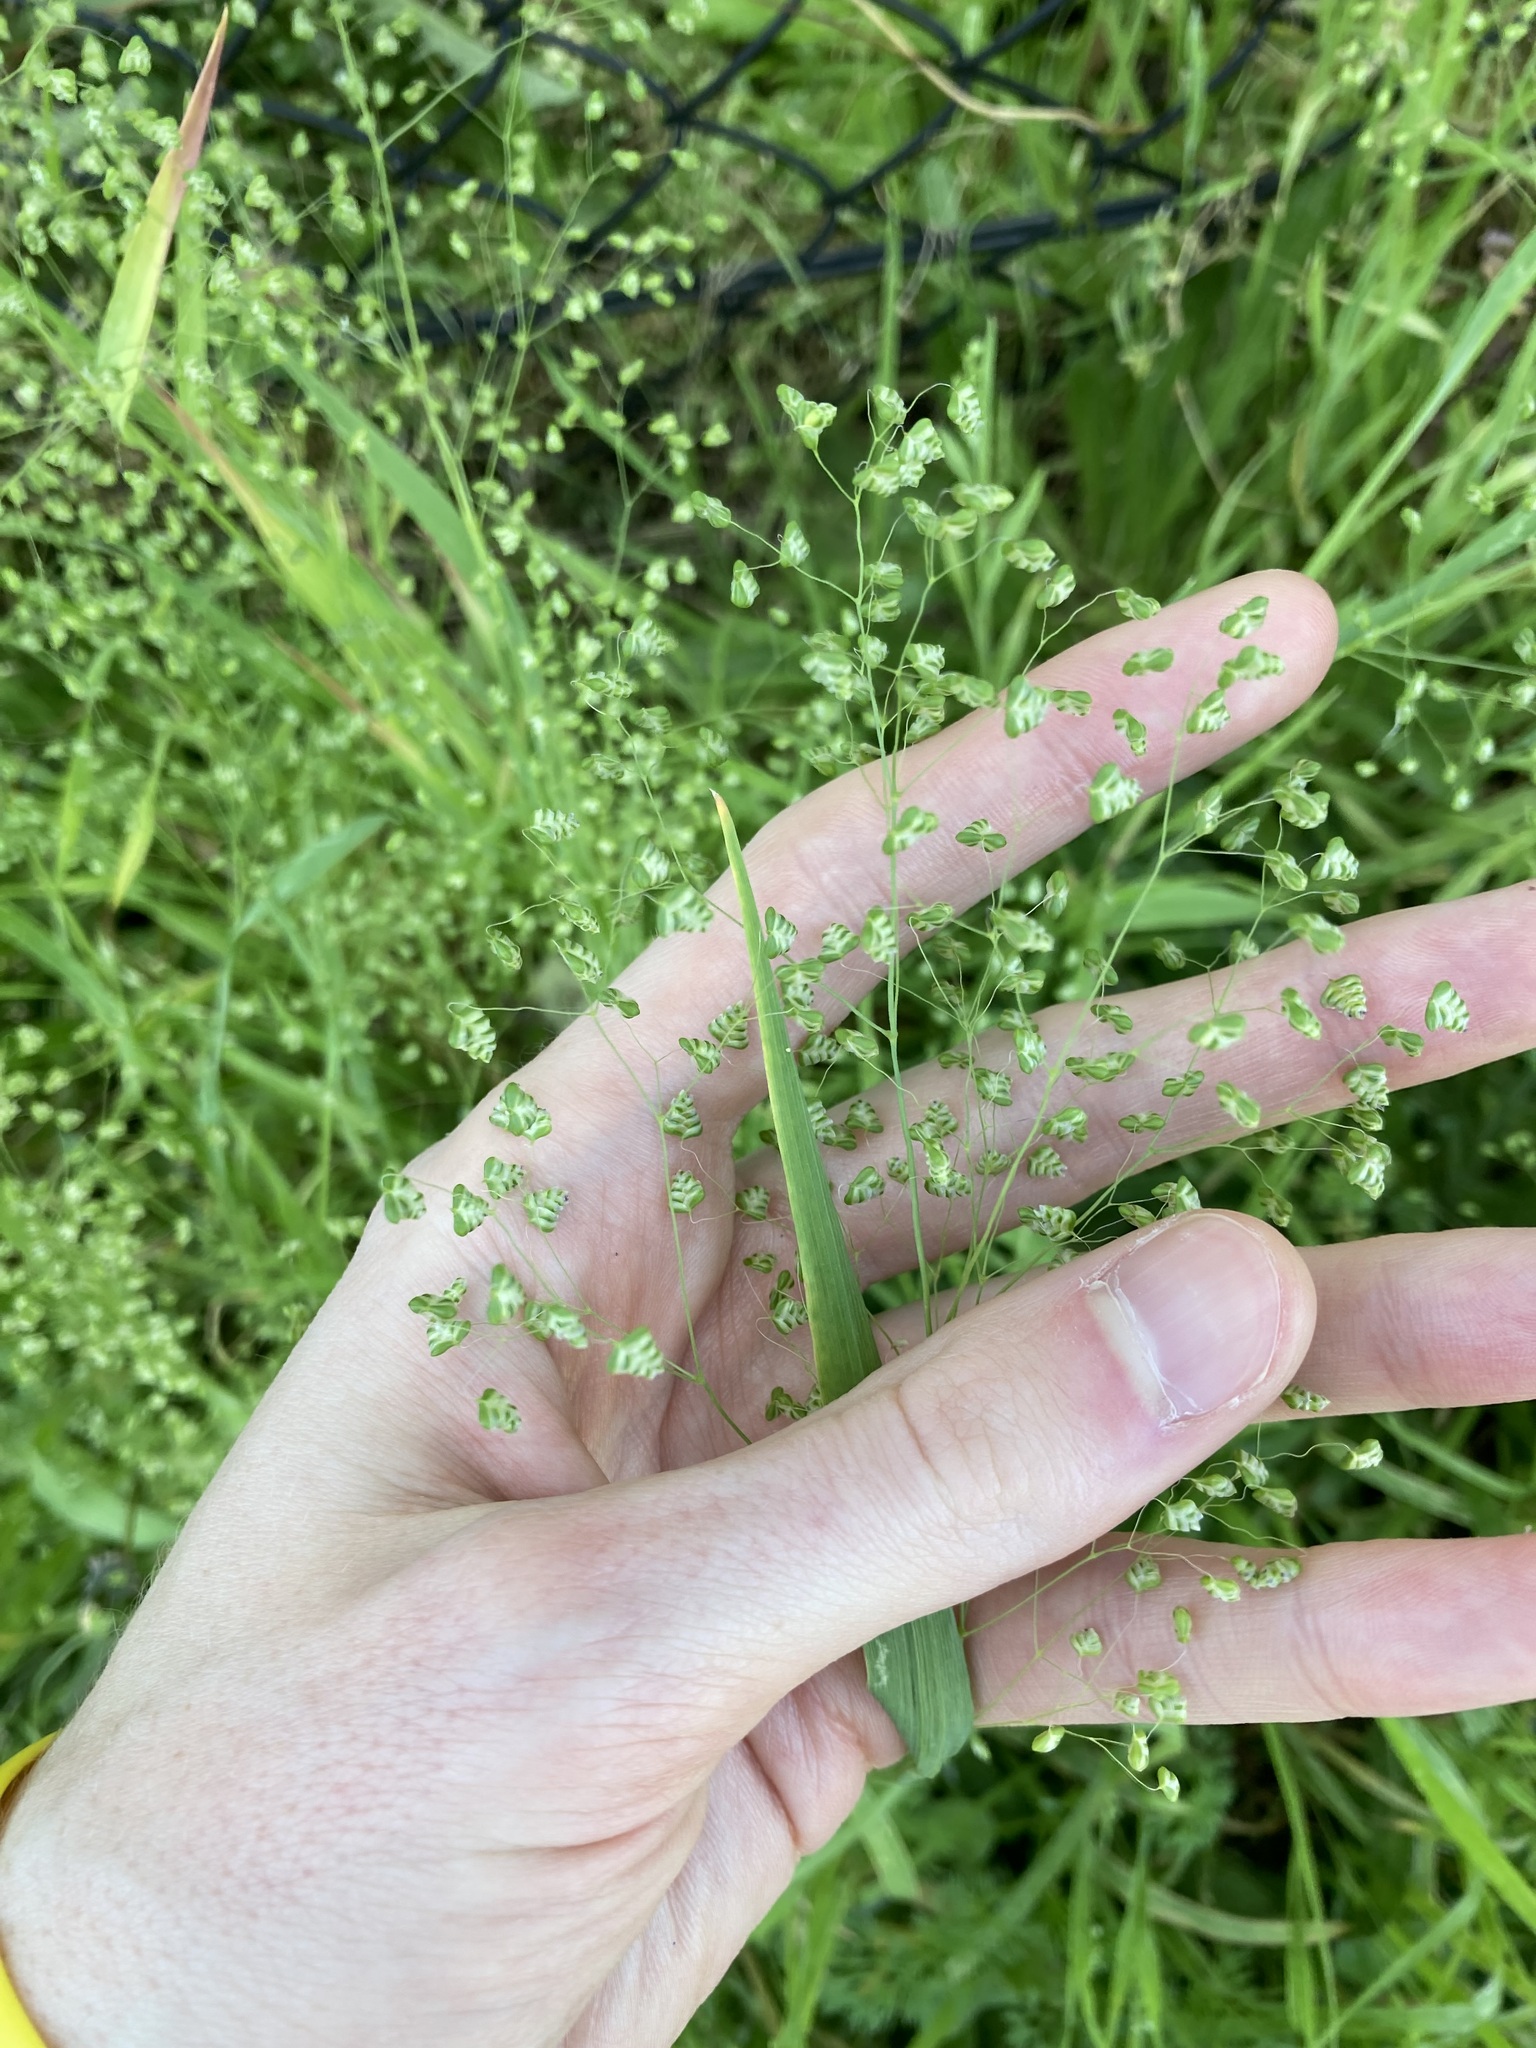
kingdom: Plantae
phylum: Tracheophyta
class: Liliopsida
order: Poales
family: Poaceae
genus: Briza
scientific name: Briza minor
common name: Lesser quaking-grass
